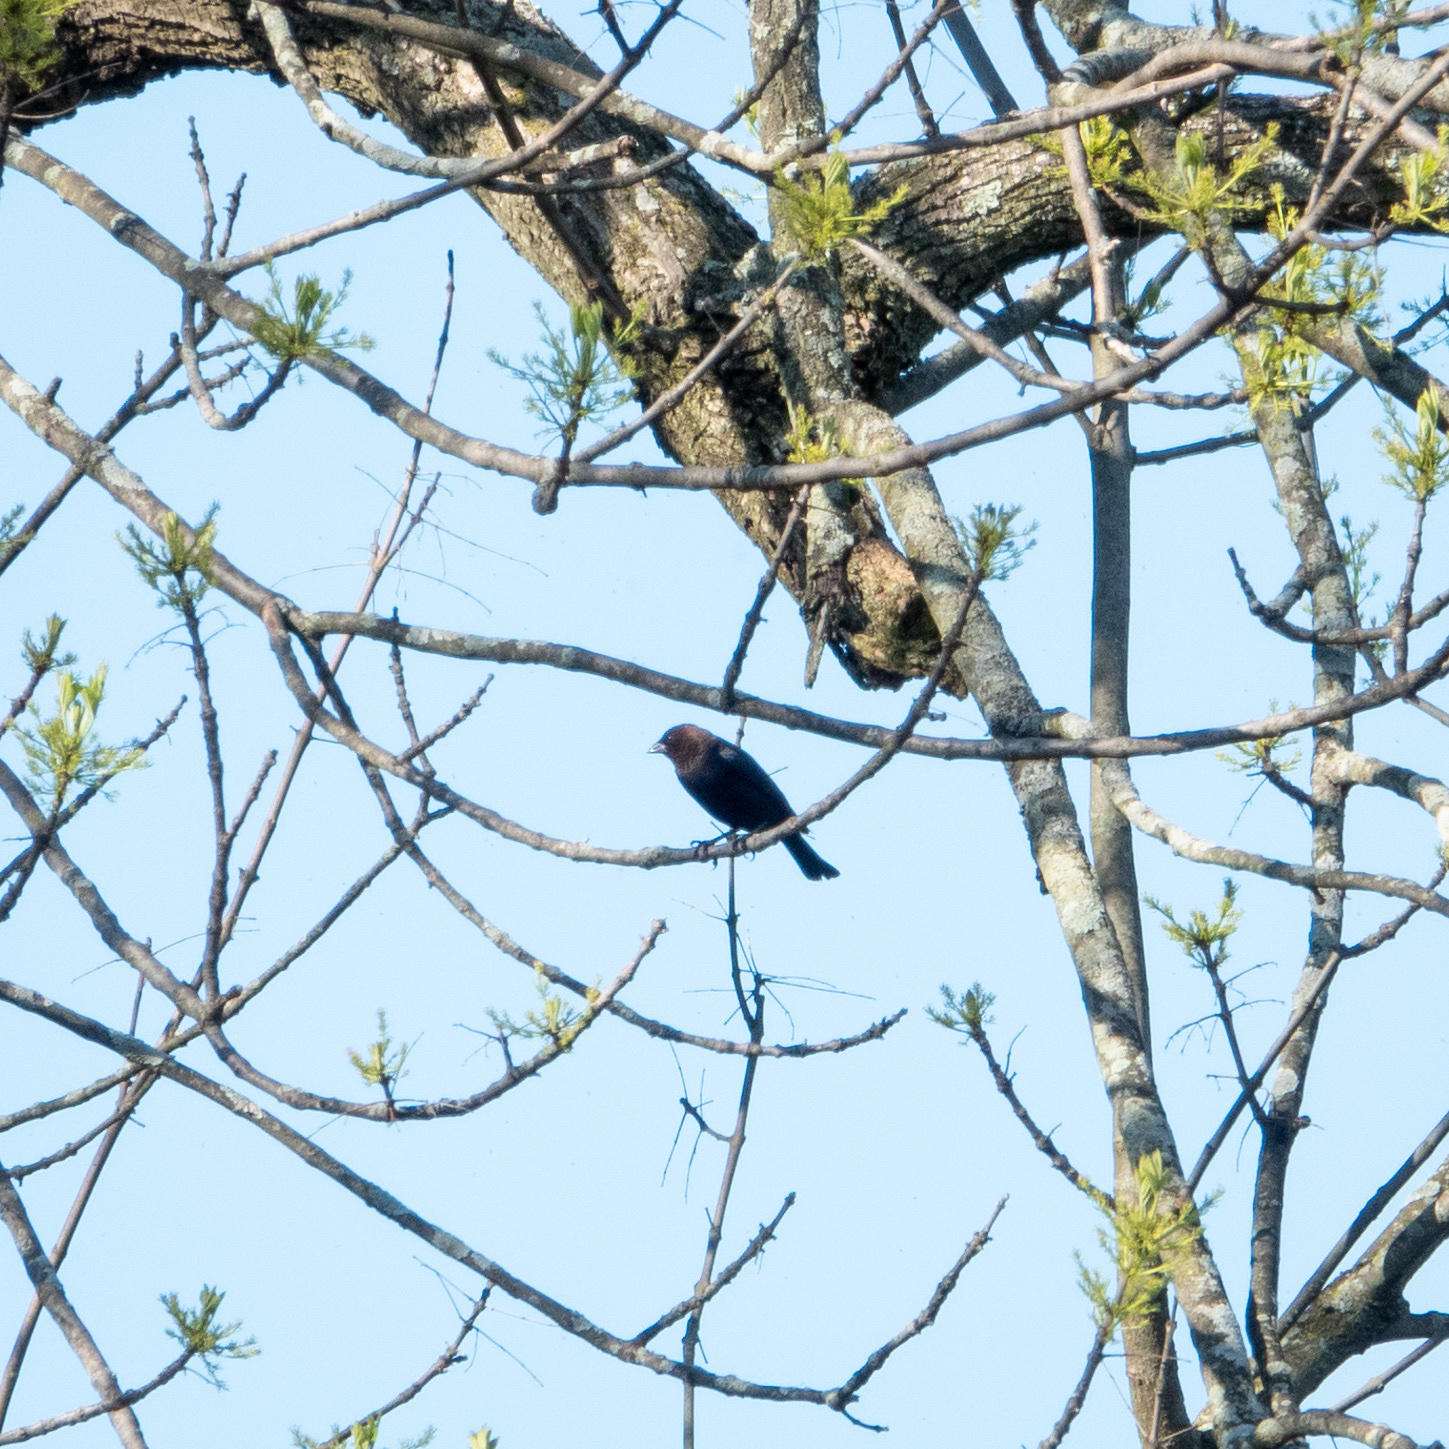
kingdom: Animalia
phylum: Chordata
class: Aves
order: Passeriformes
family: Icteridae
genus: Molothrus
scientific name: Molothrus ater
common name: Brown-headed cowbird
